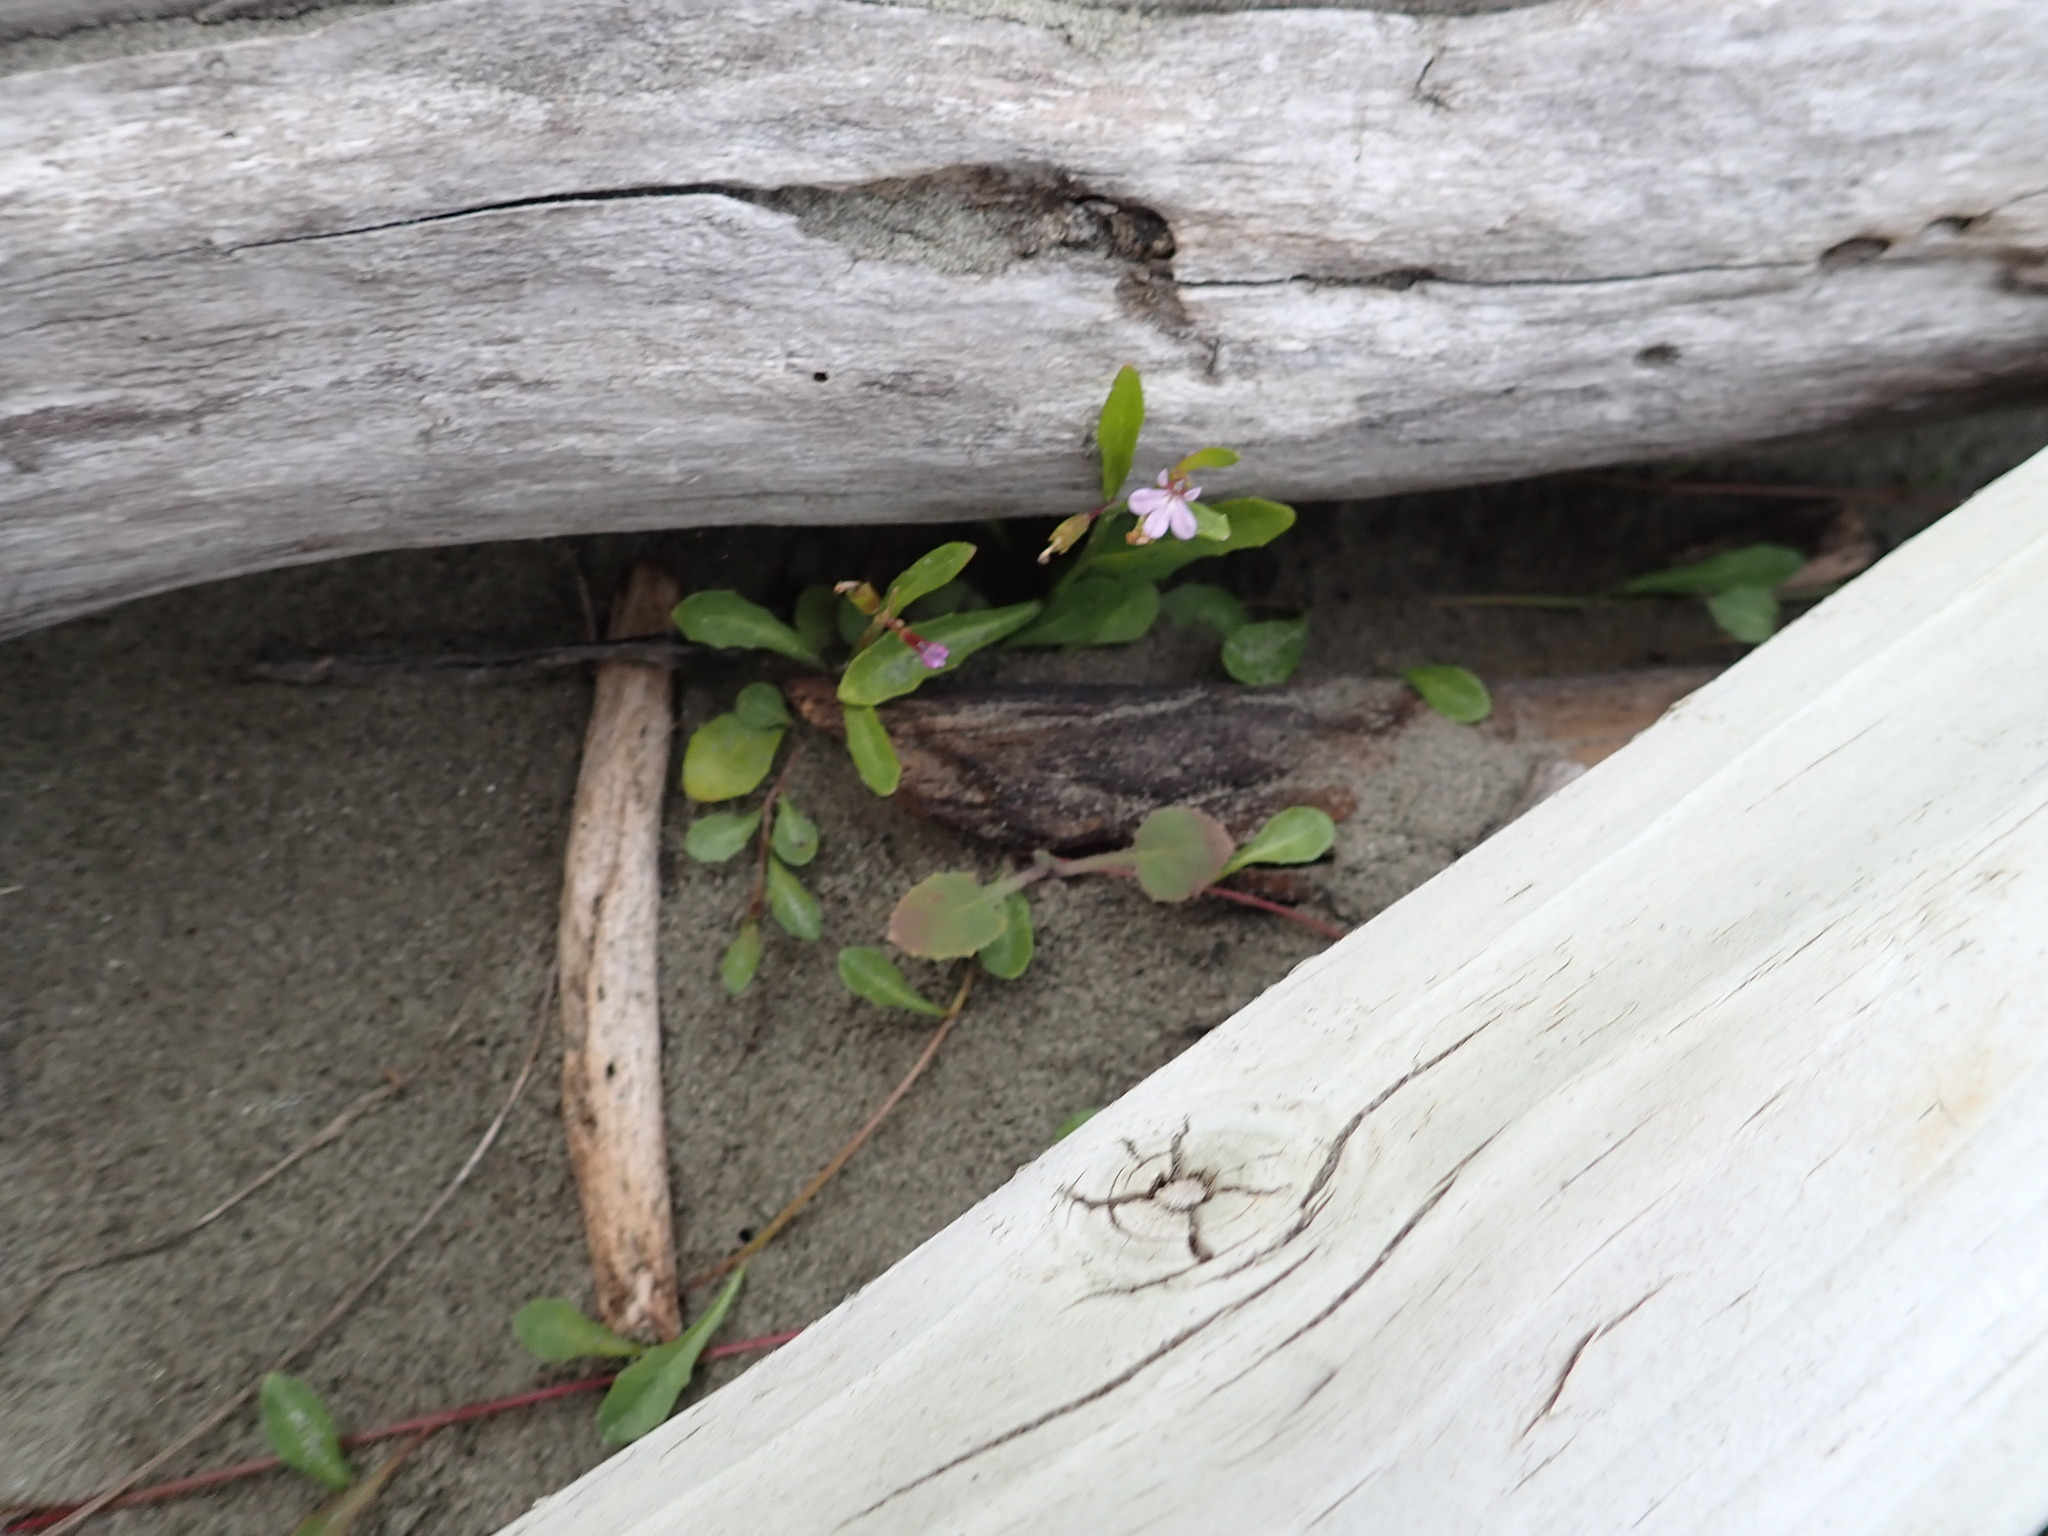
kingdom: Plantae
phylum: Tracheophyta
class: Magnoliopsida
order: Asterales
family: Campanulaceae
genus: Lobelia
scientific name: Lobelia anceps
